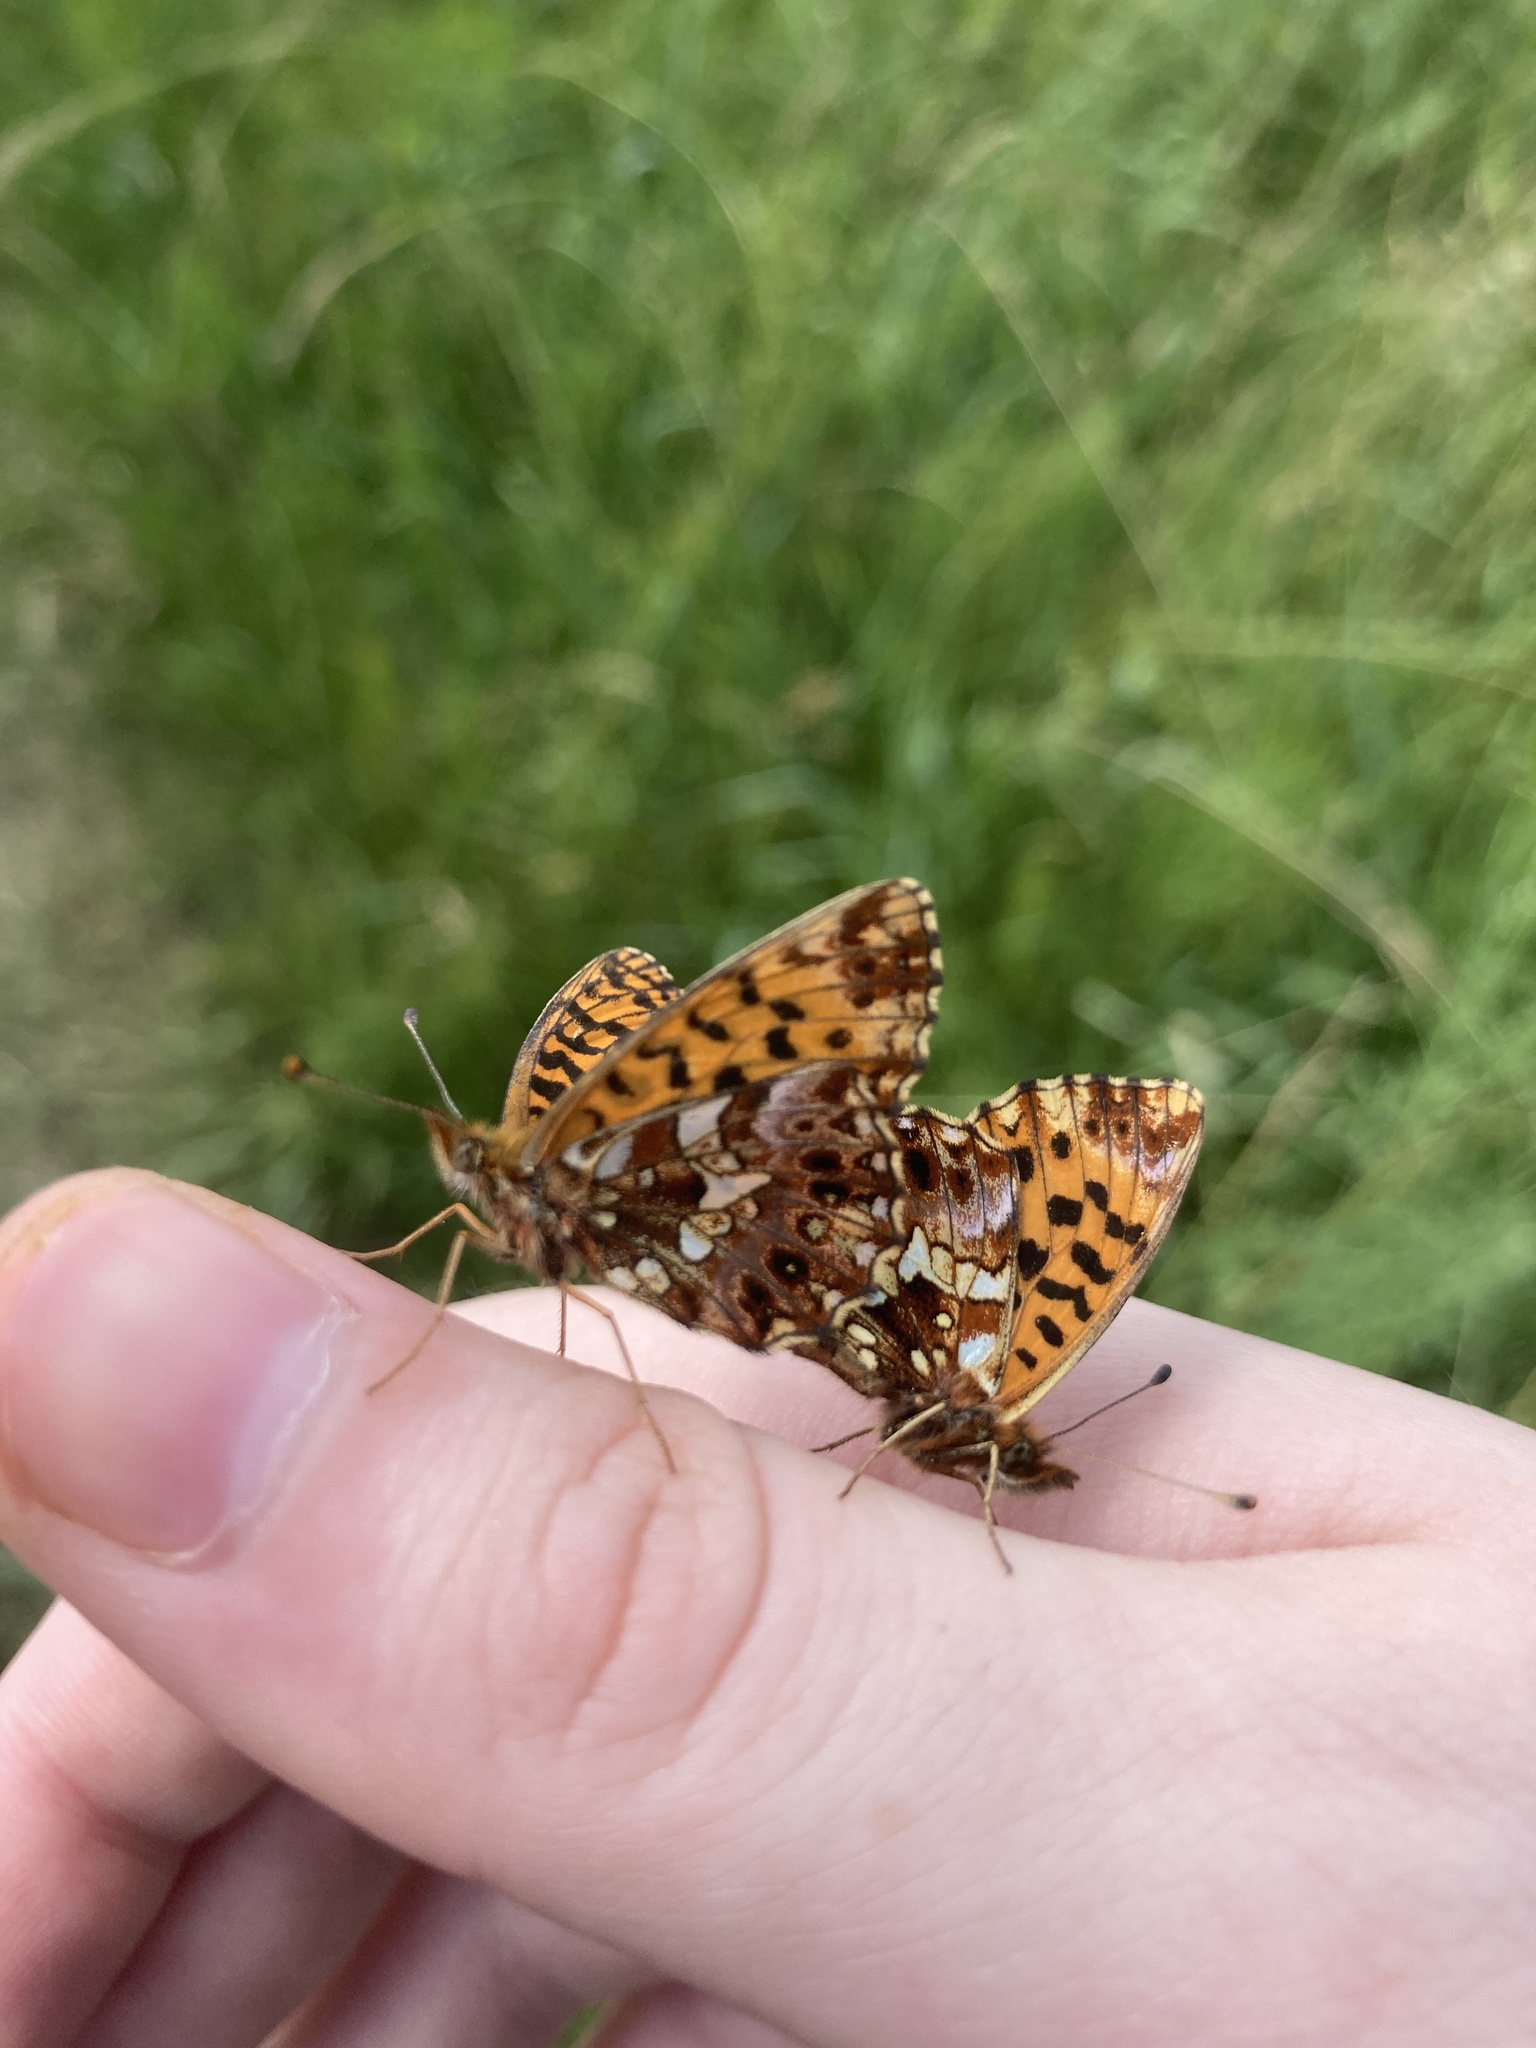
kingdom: Animalia
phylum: Arthropoda
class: Insecta
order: Lepidoptera
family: Nymphalidae
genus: Boloria
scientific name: Boloria dia
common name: Weaver's fritillary
